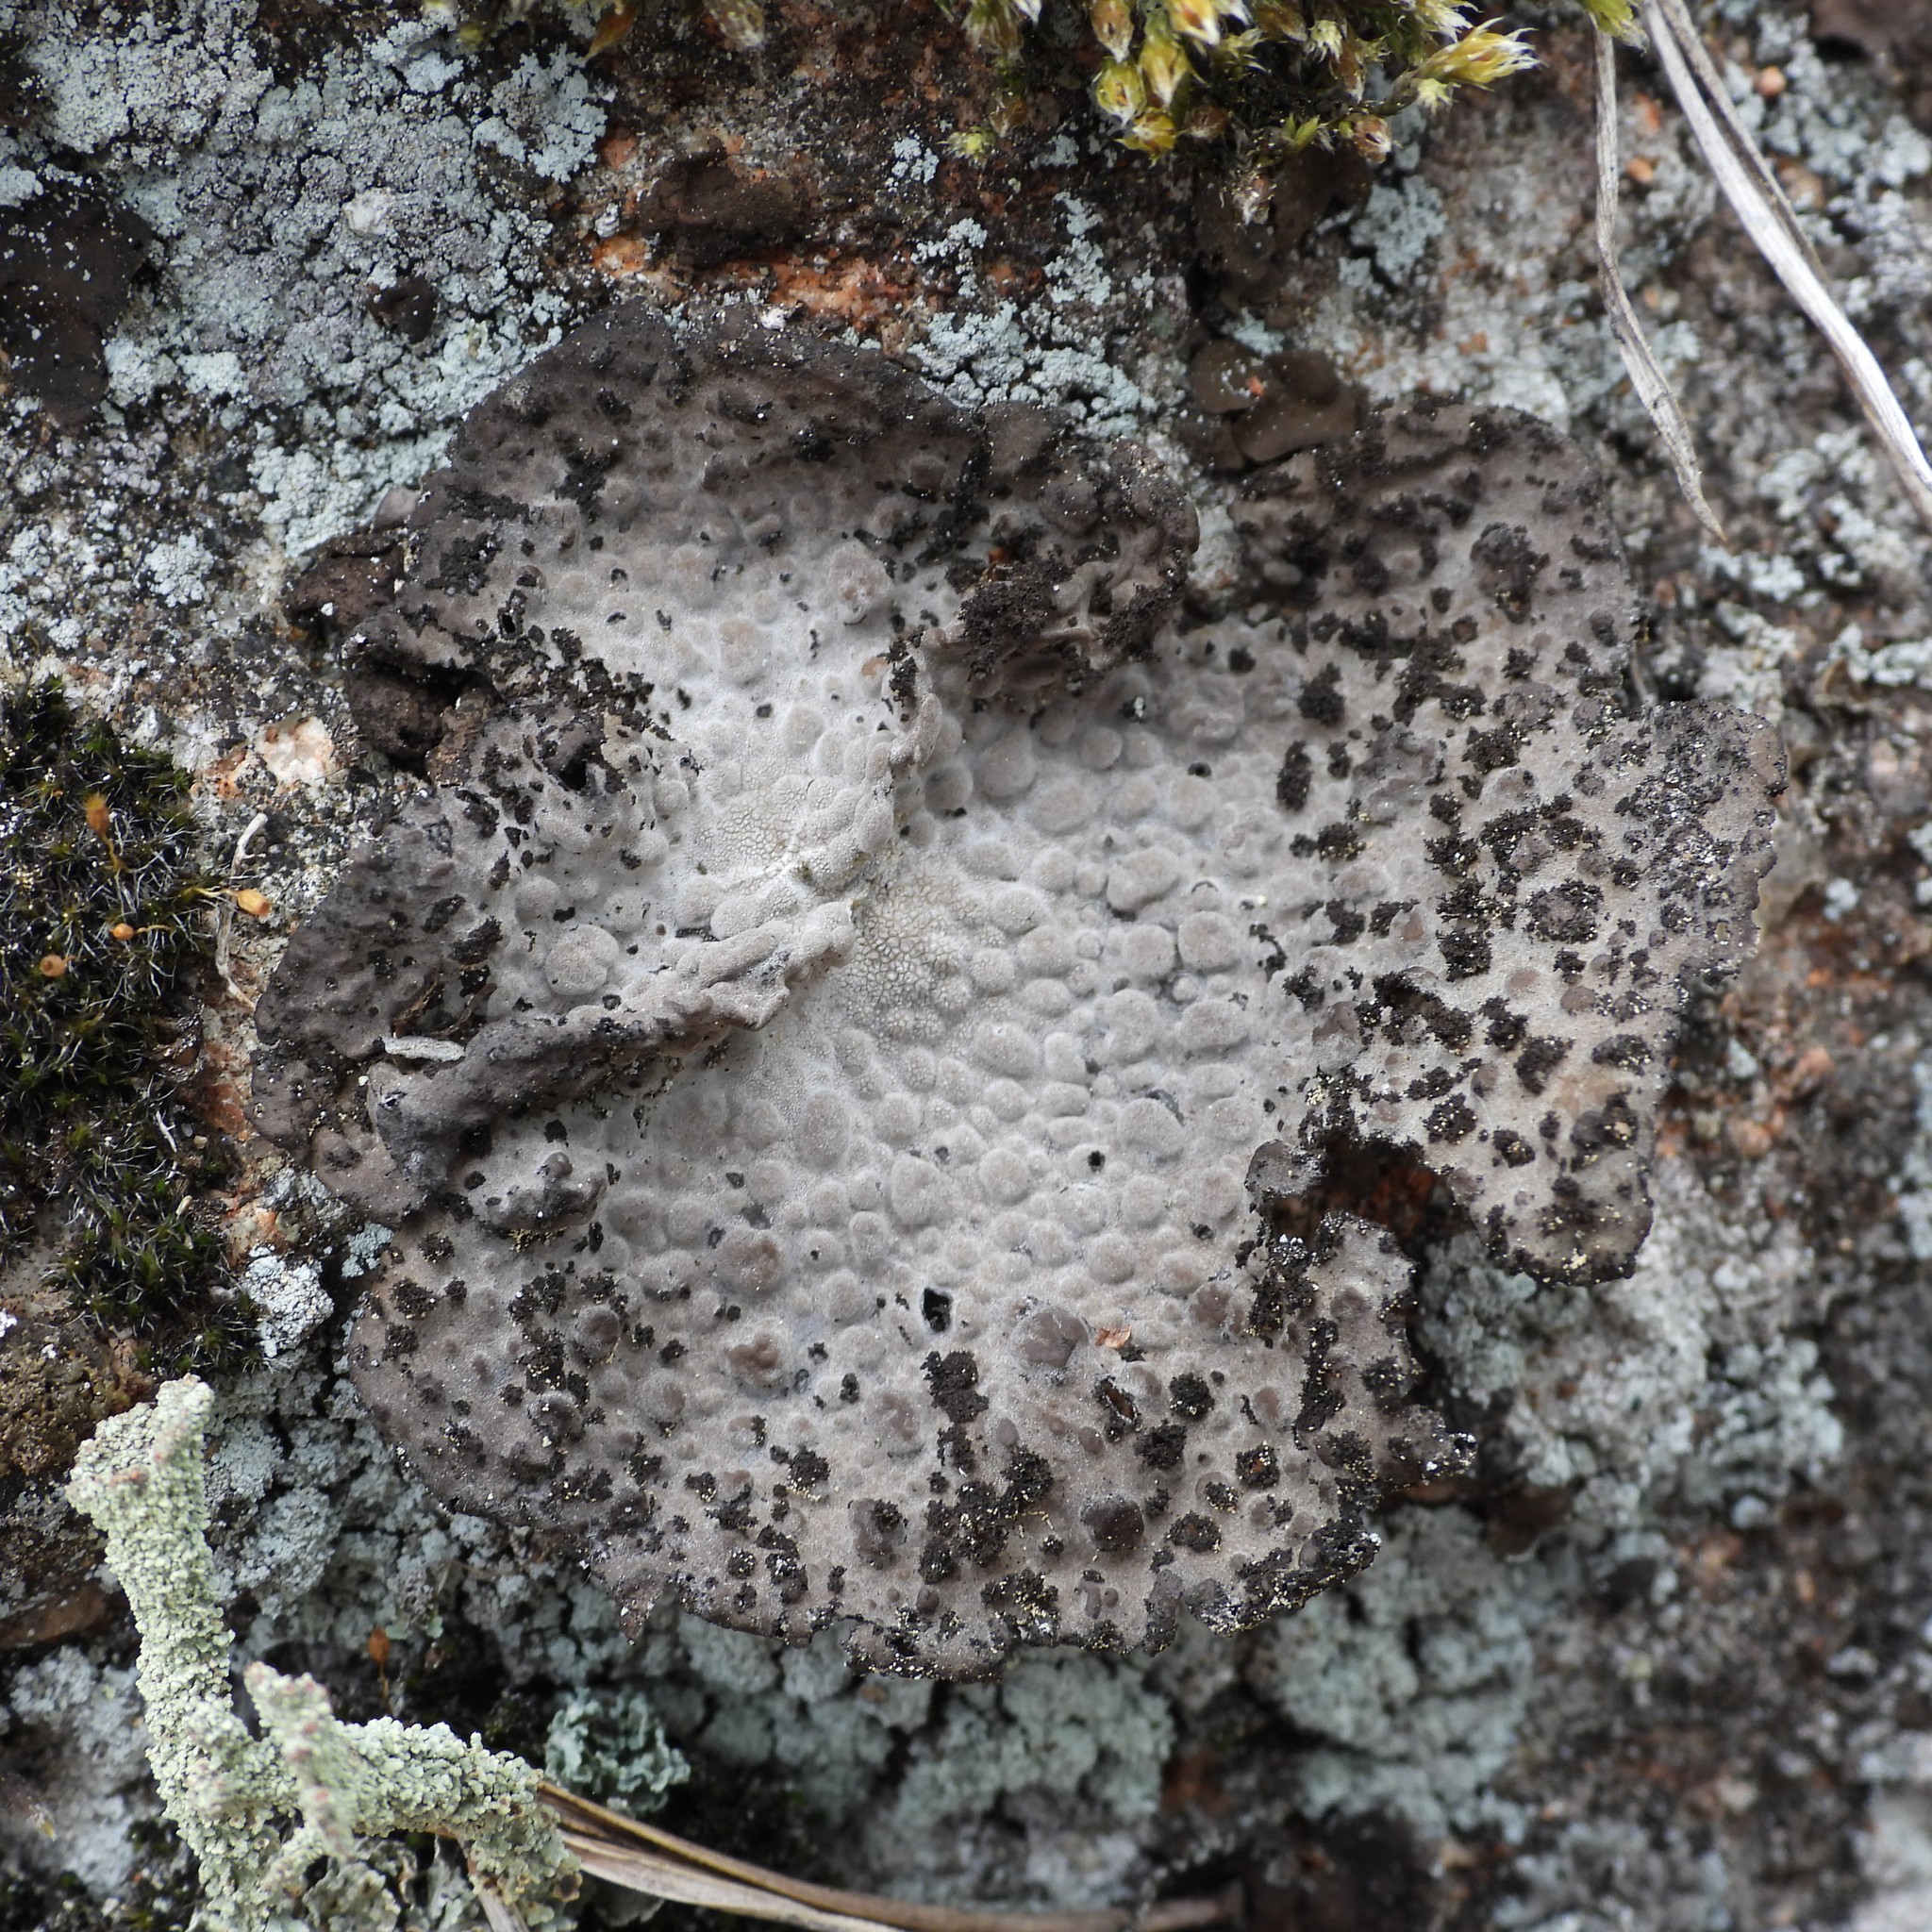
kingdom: Fungi
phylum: Ascomycota
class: Lecanoromycetes
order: Umbilicariales
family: Umbilicariaceae
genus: Lasallia
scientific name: Lasallia pustulata
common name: Blistered toadskin lichen
